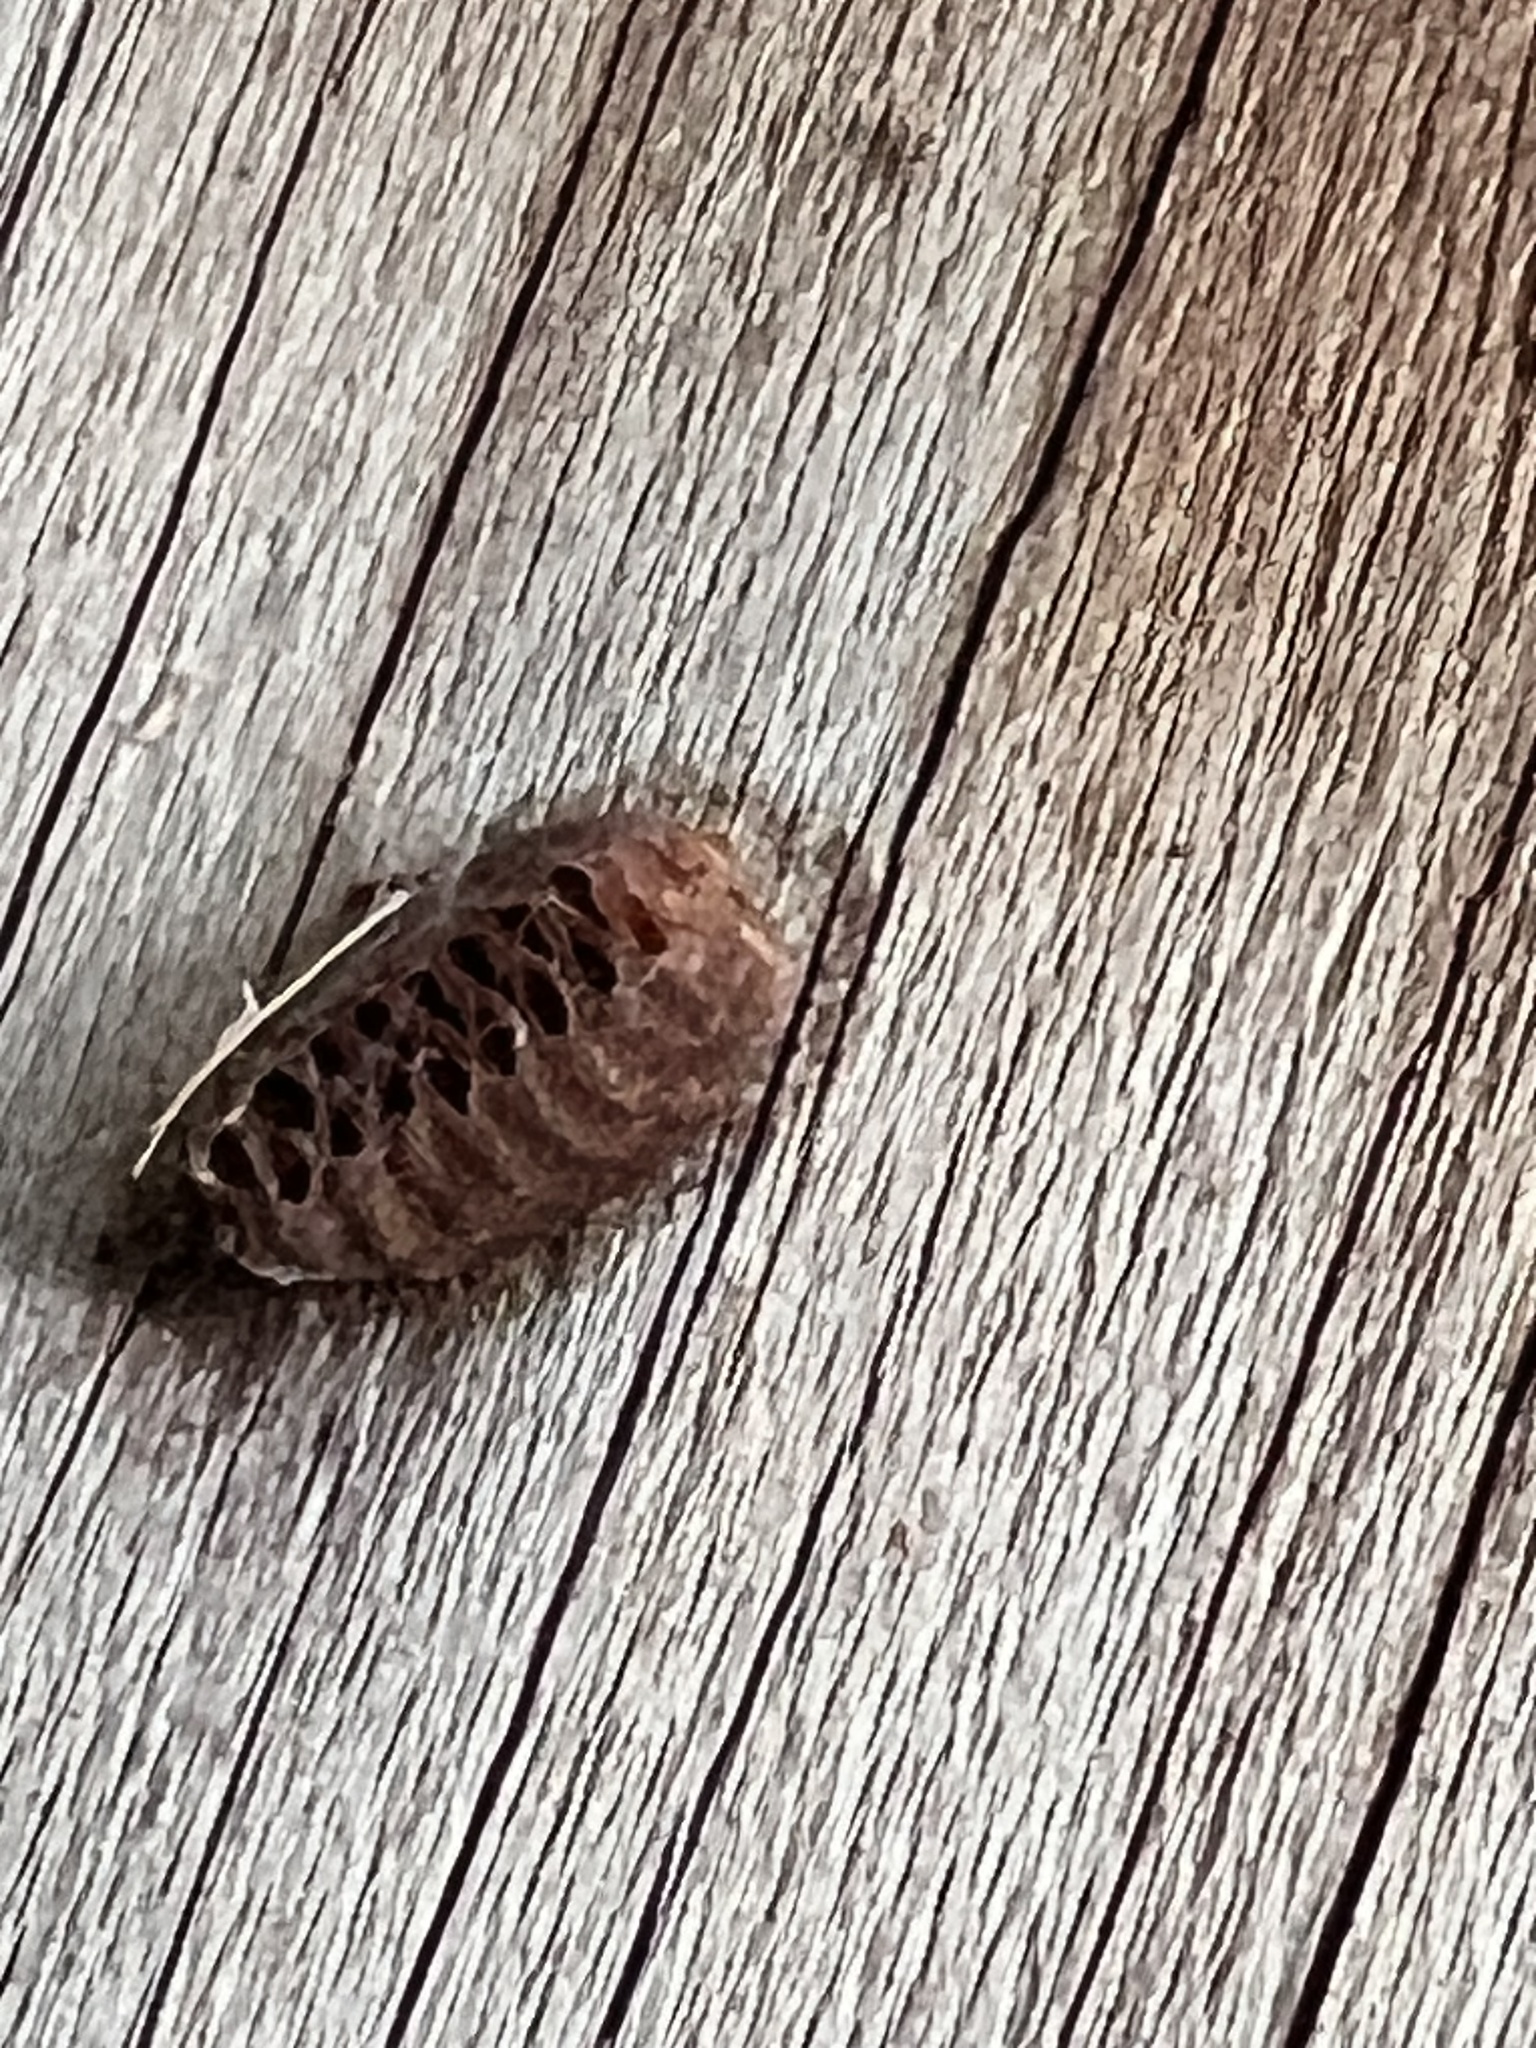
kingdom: Animalia
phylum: Arthropoda
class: Insecta
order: Mantodea
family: Mantidae
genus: Orthodera
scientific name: Orthodera novaezealandiae
